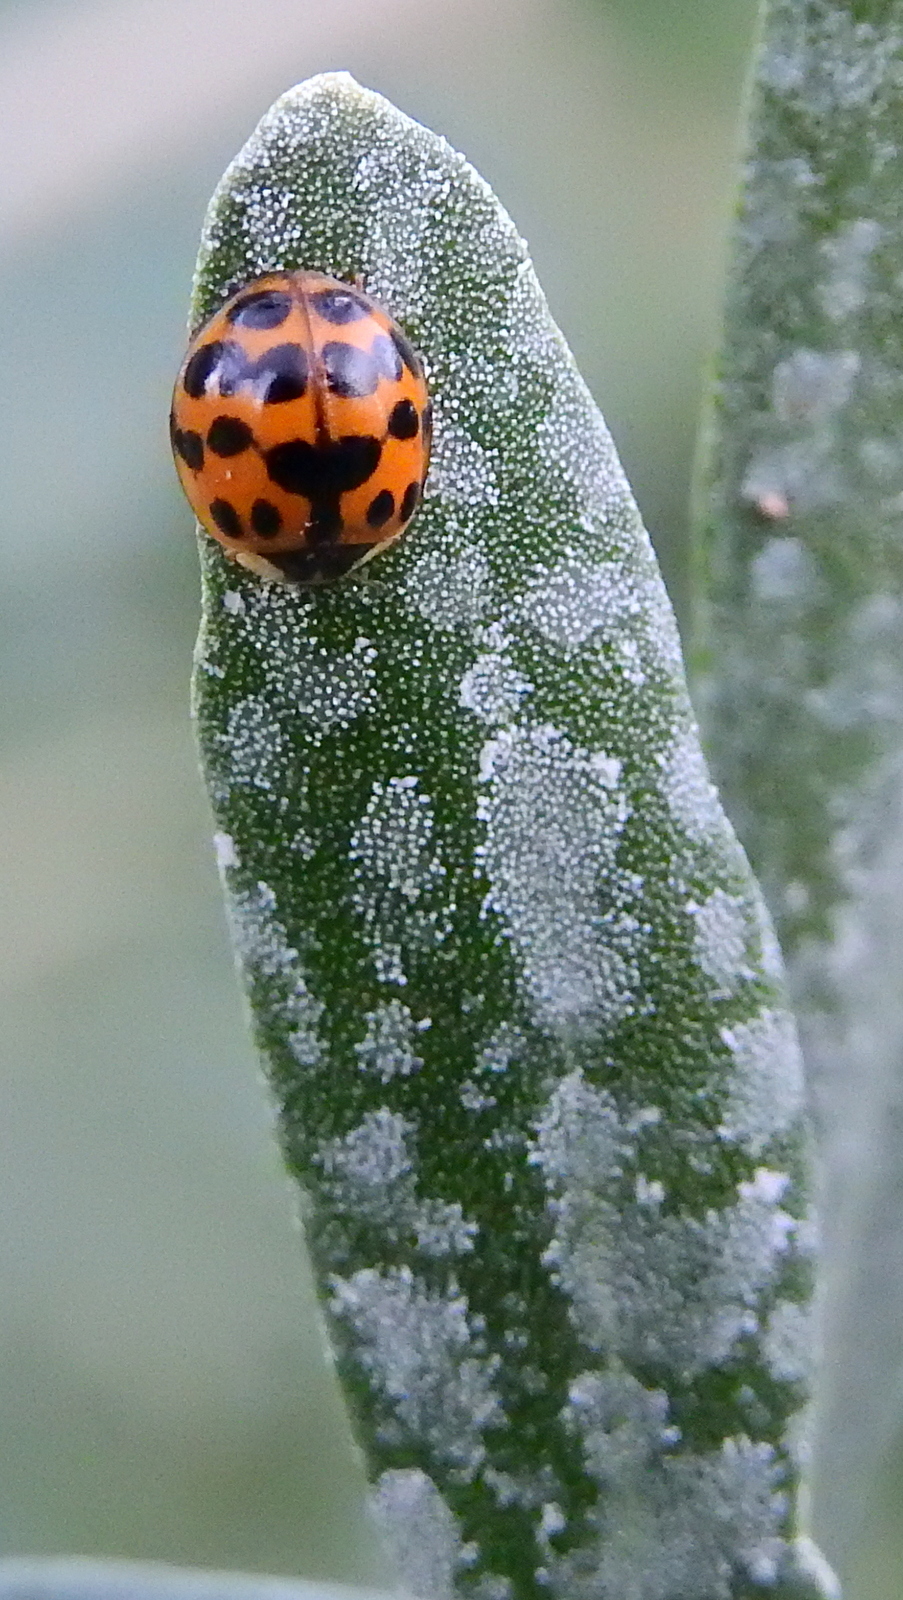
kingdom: Animalia
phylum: Arthropoda
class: Insecta
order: Coleoptera
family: Coccinellidae
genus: Harmonia
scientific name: Harmonia axyridis
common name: Harlequin ladybird
